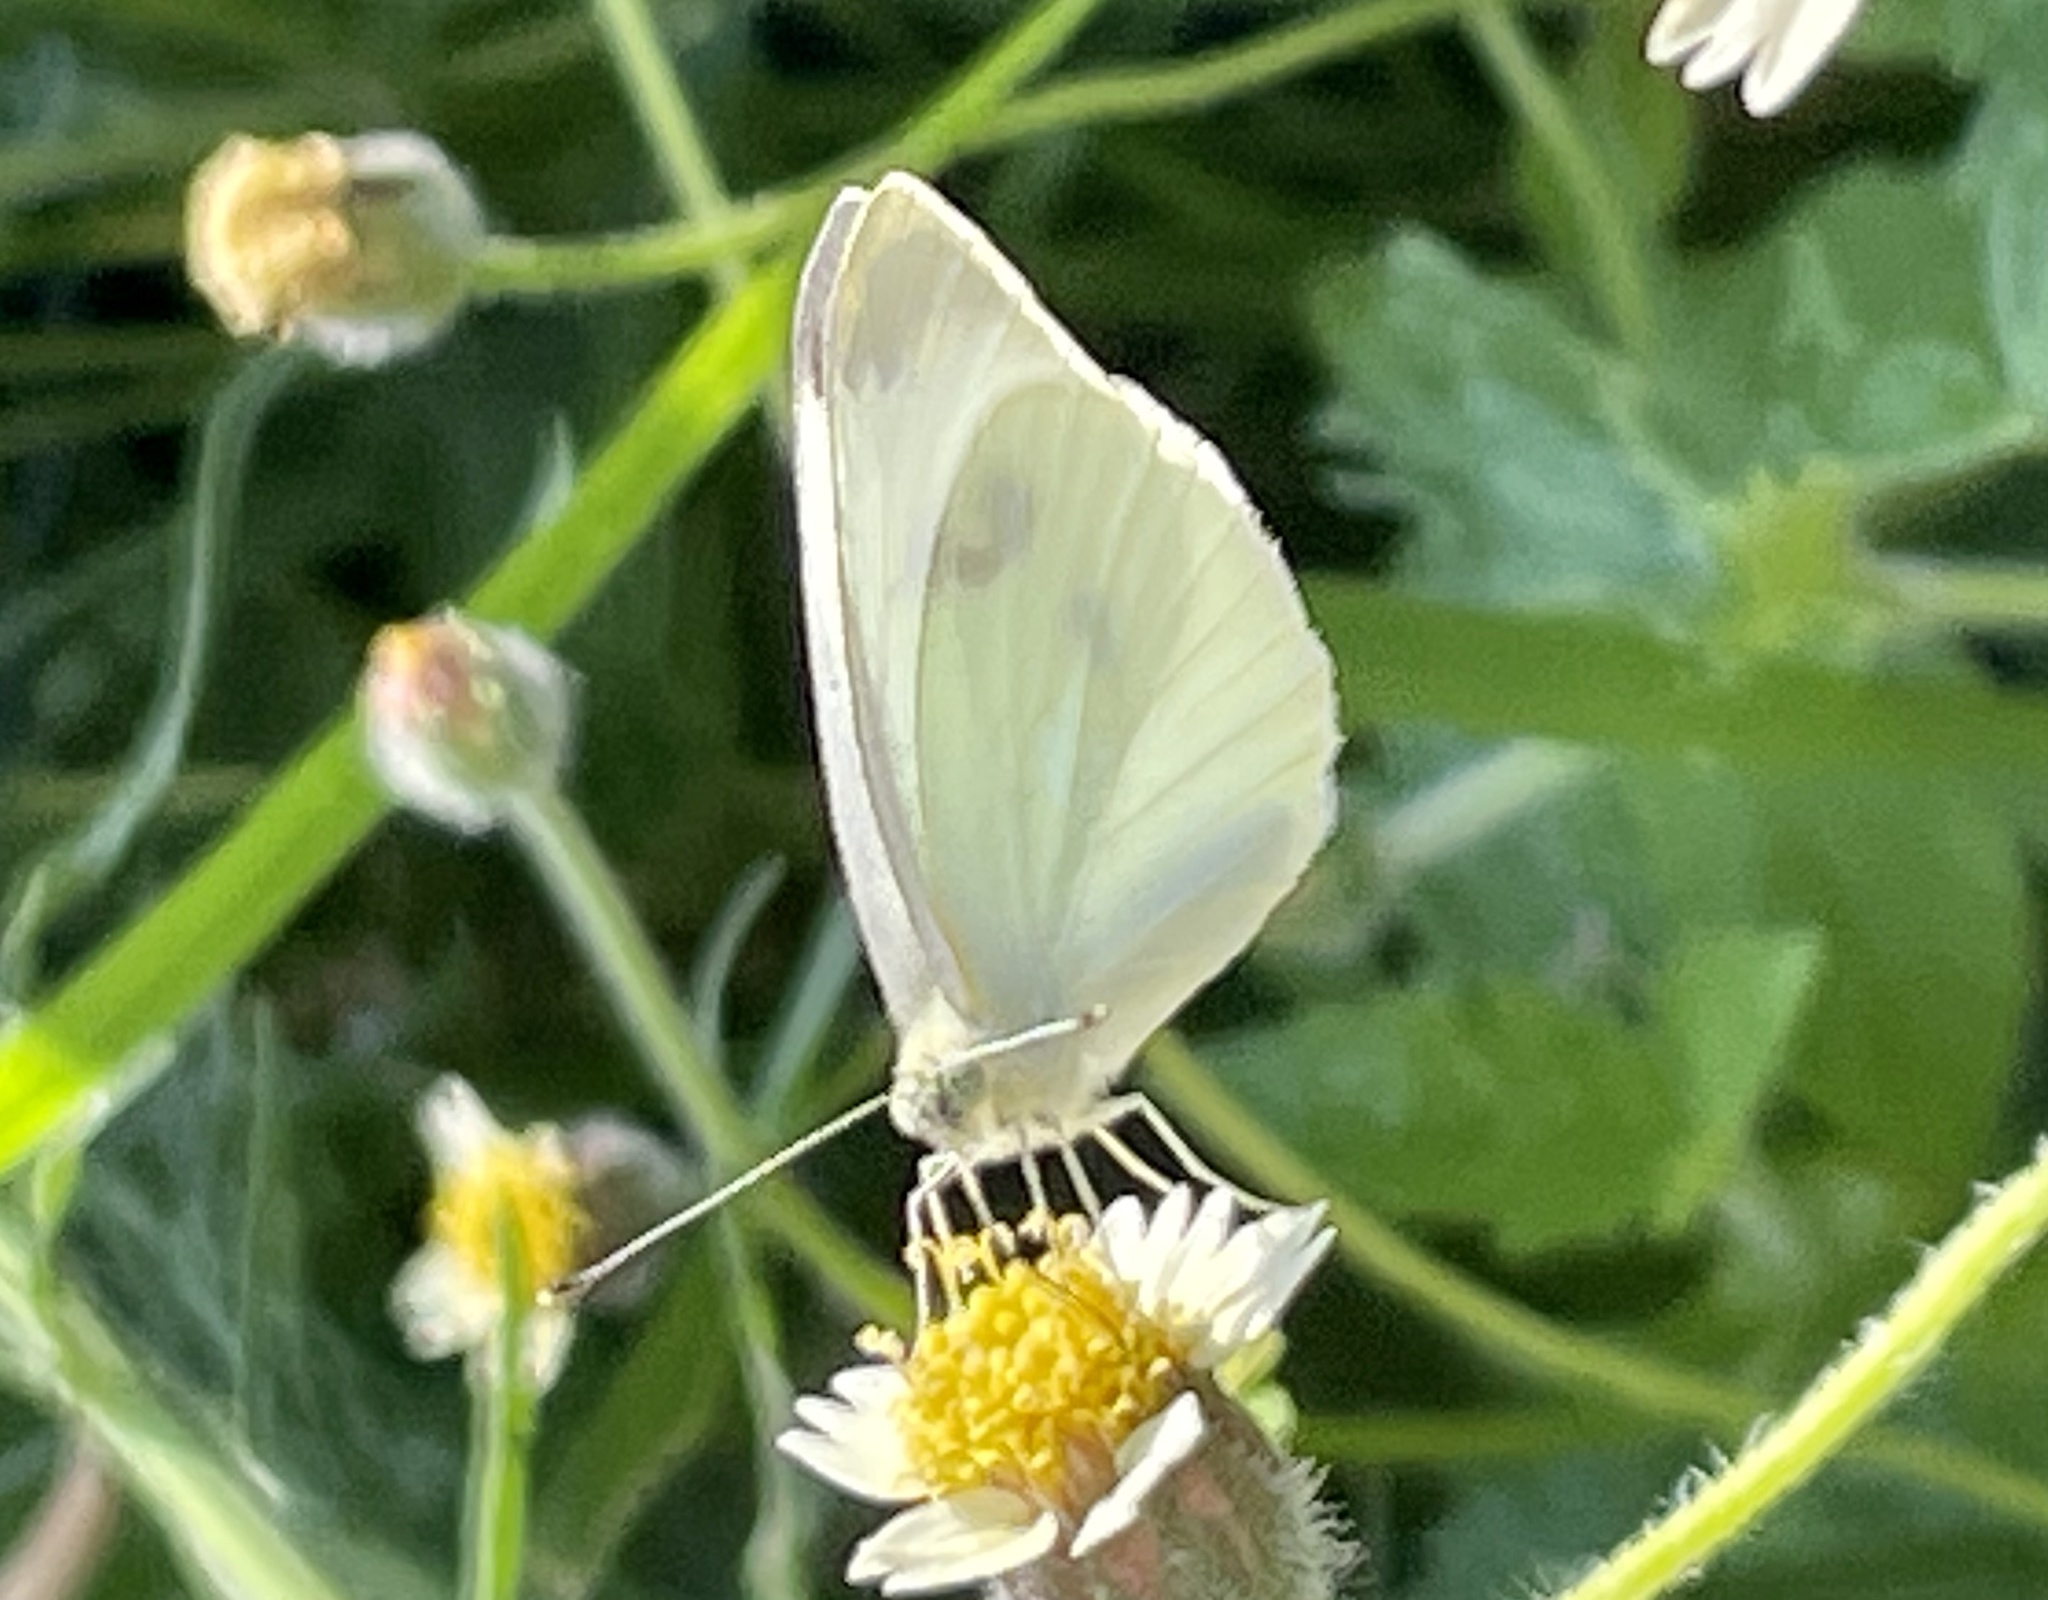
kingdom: Animalia
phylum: Arthropoda
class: Insecta
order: Lepidoptera
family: Pieridae
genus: Pieris
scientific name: Pieris rapae
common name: Small white
